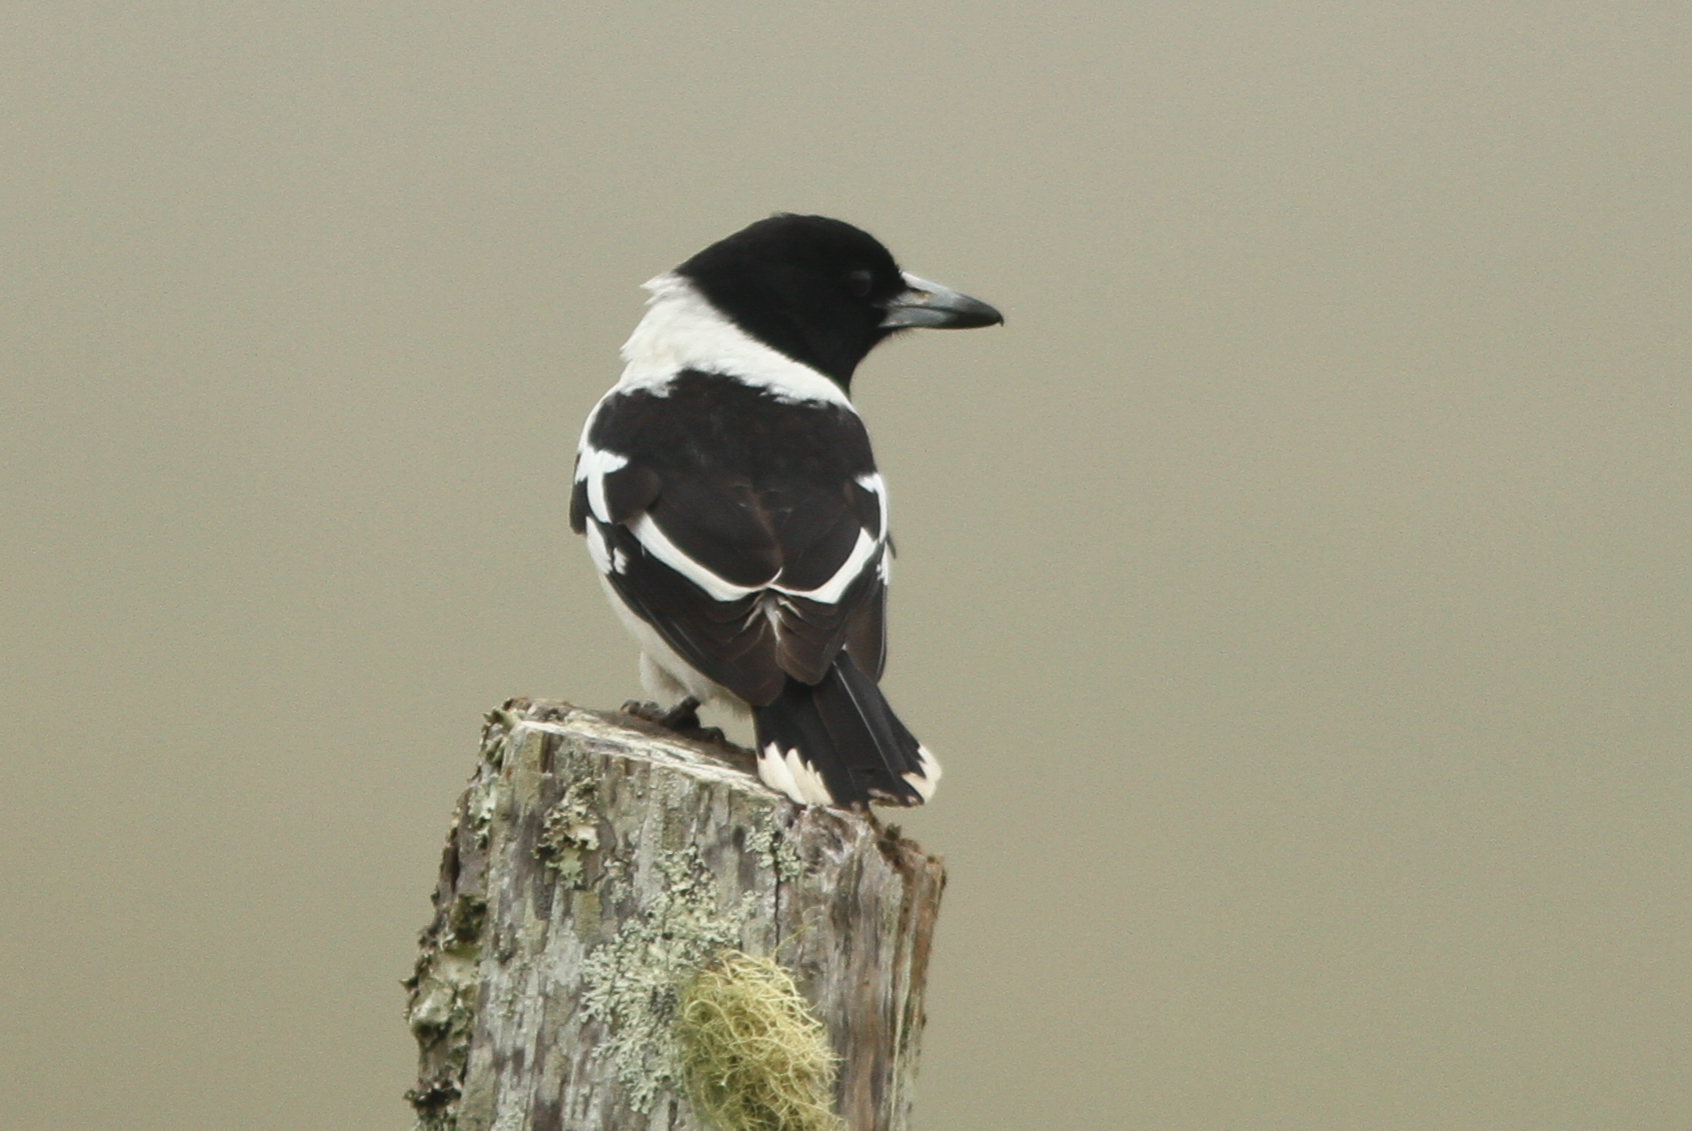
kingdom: Animalia
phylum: Chordata
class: Aves
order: Passeriformes
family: Cracticidae
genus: Cracticus
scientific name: Cracticus nigrogularis
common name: Pied butcherbird
